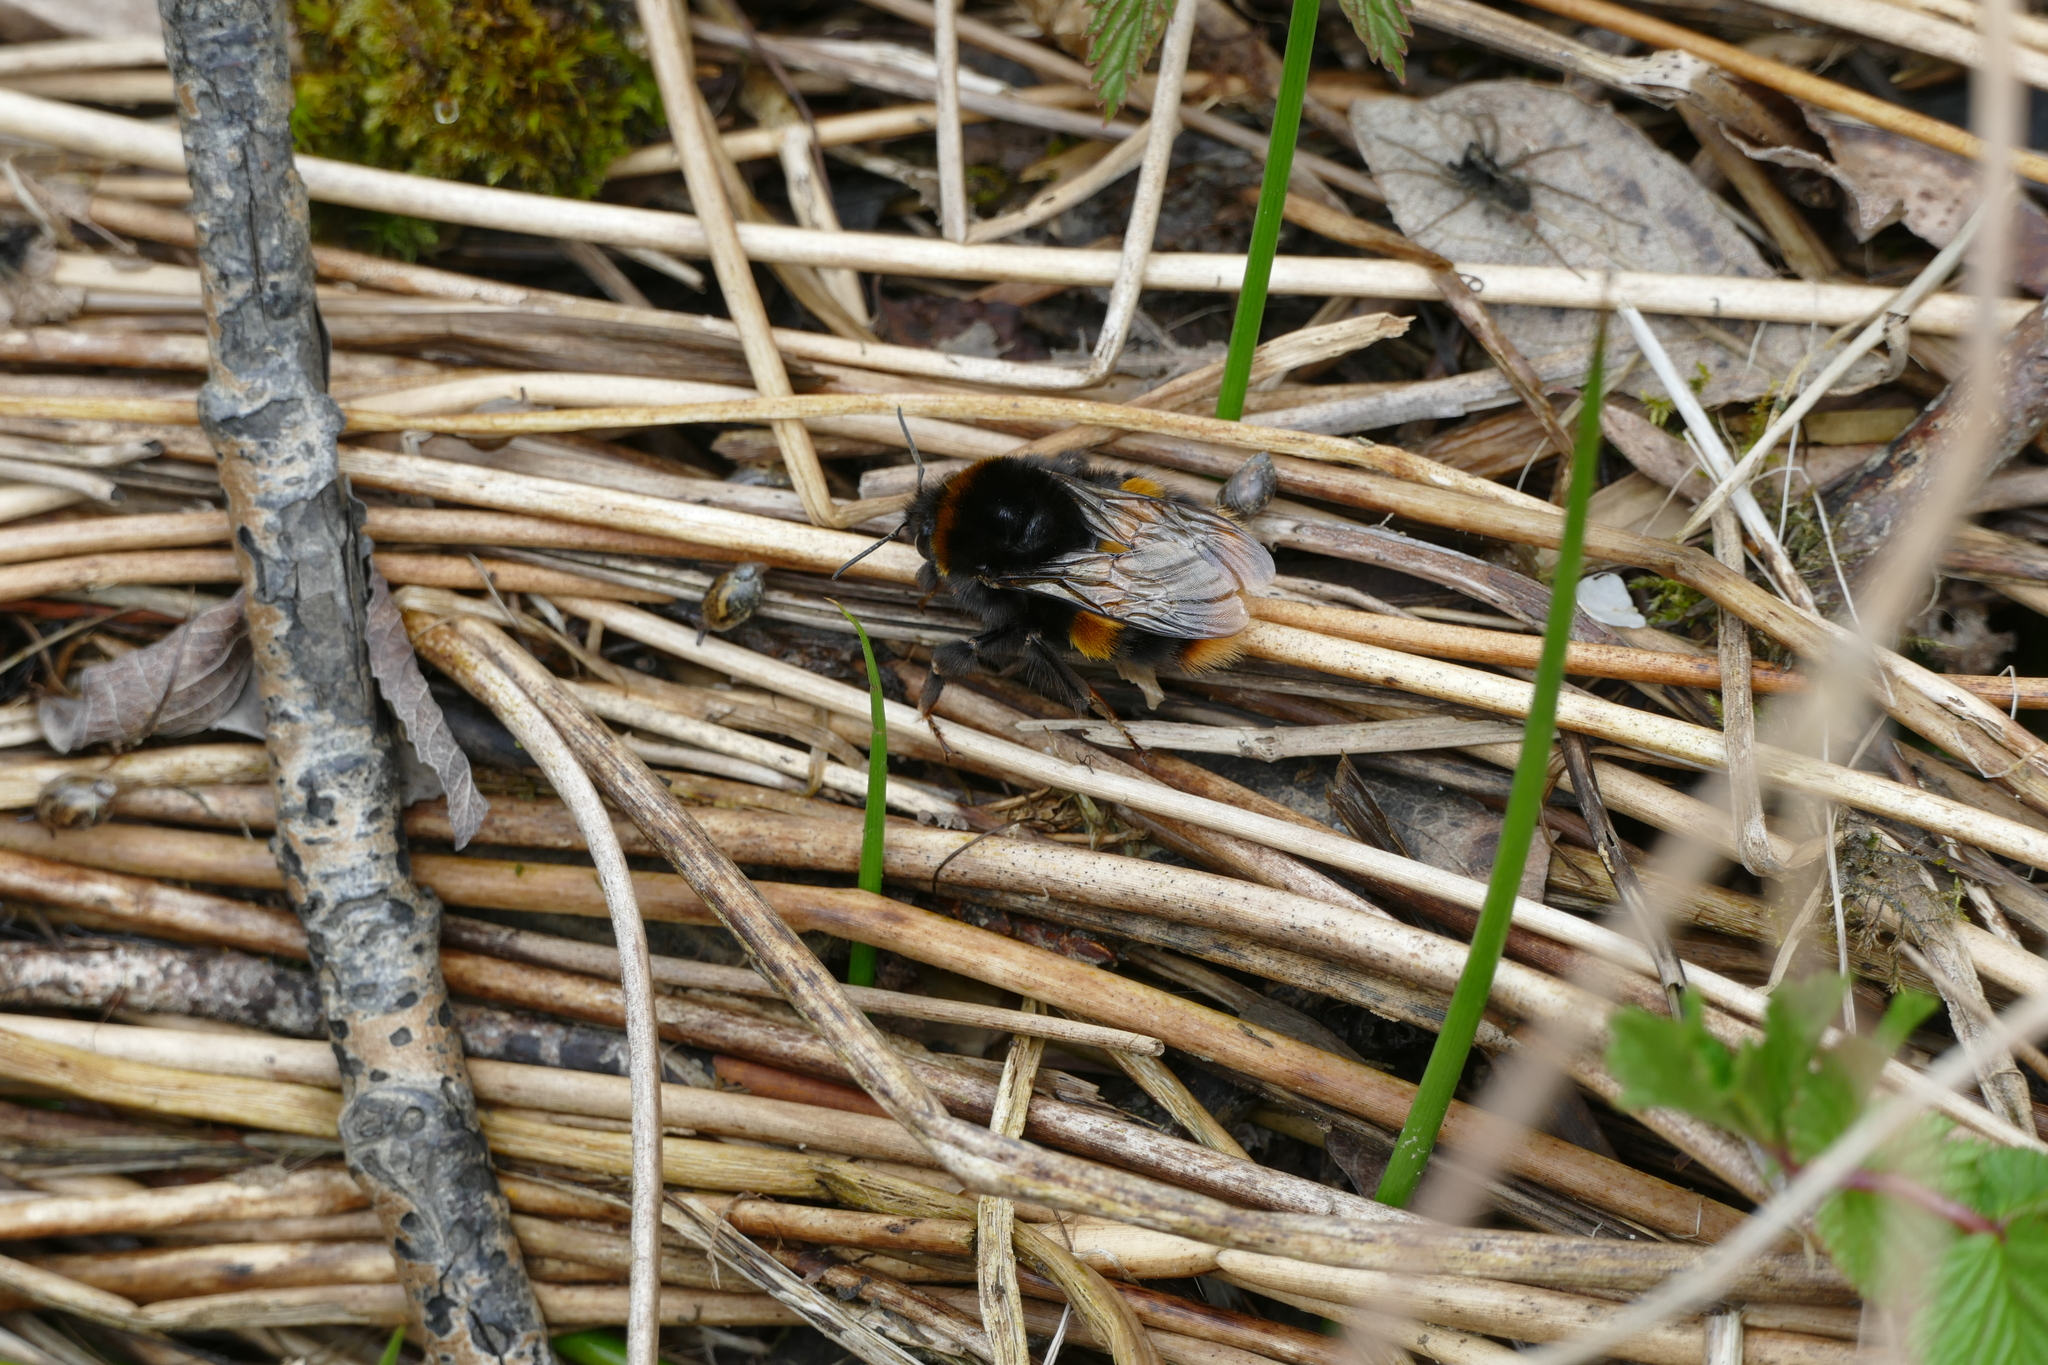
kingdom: Animalia
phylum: Arthropoda
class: Insecta
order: Hymenoptera
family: Apidae
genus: Bombus
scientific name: Bombus terrestris
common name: Buff-tailed bumblebee
